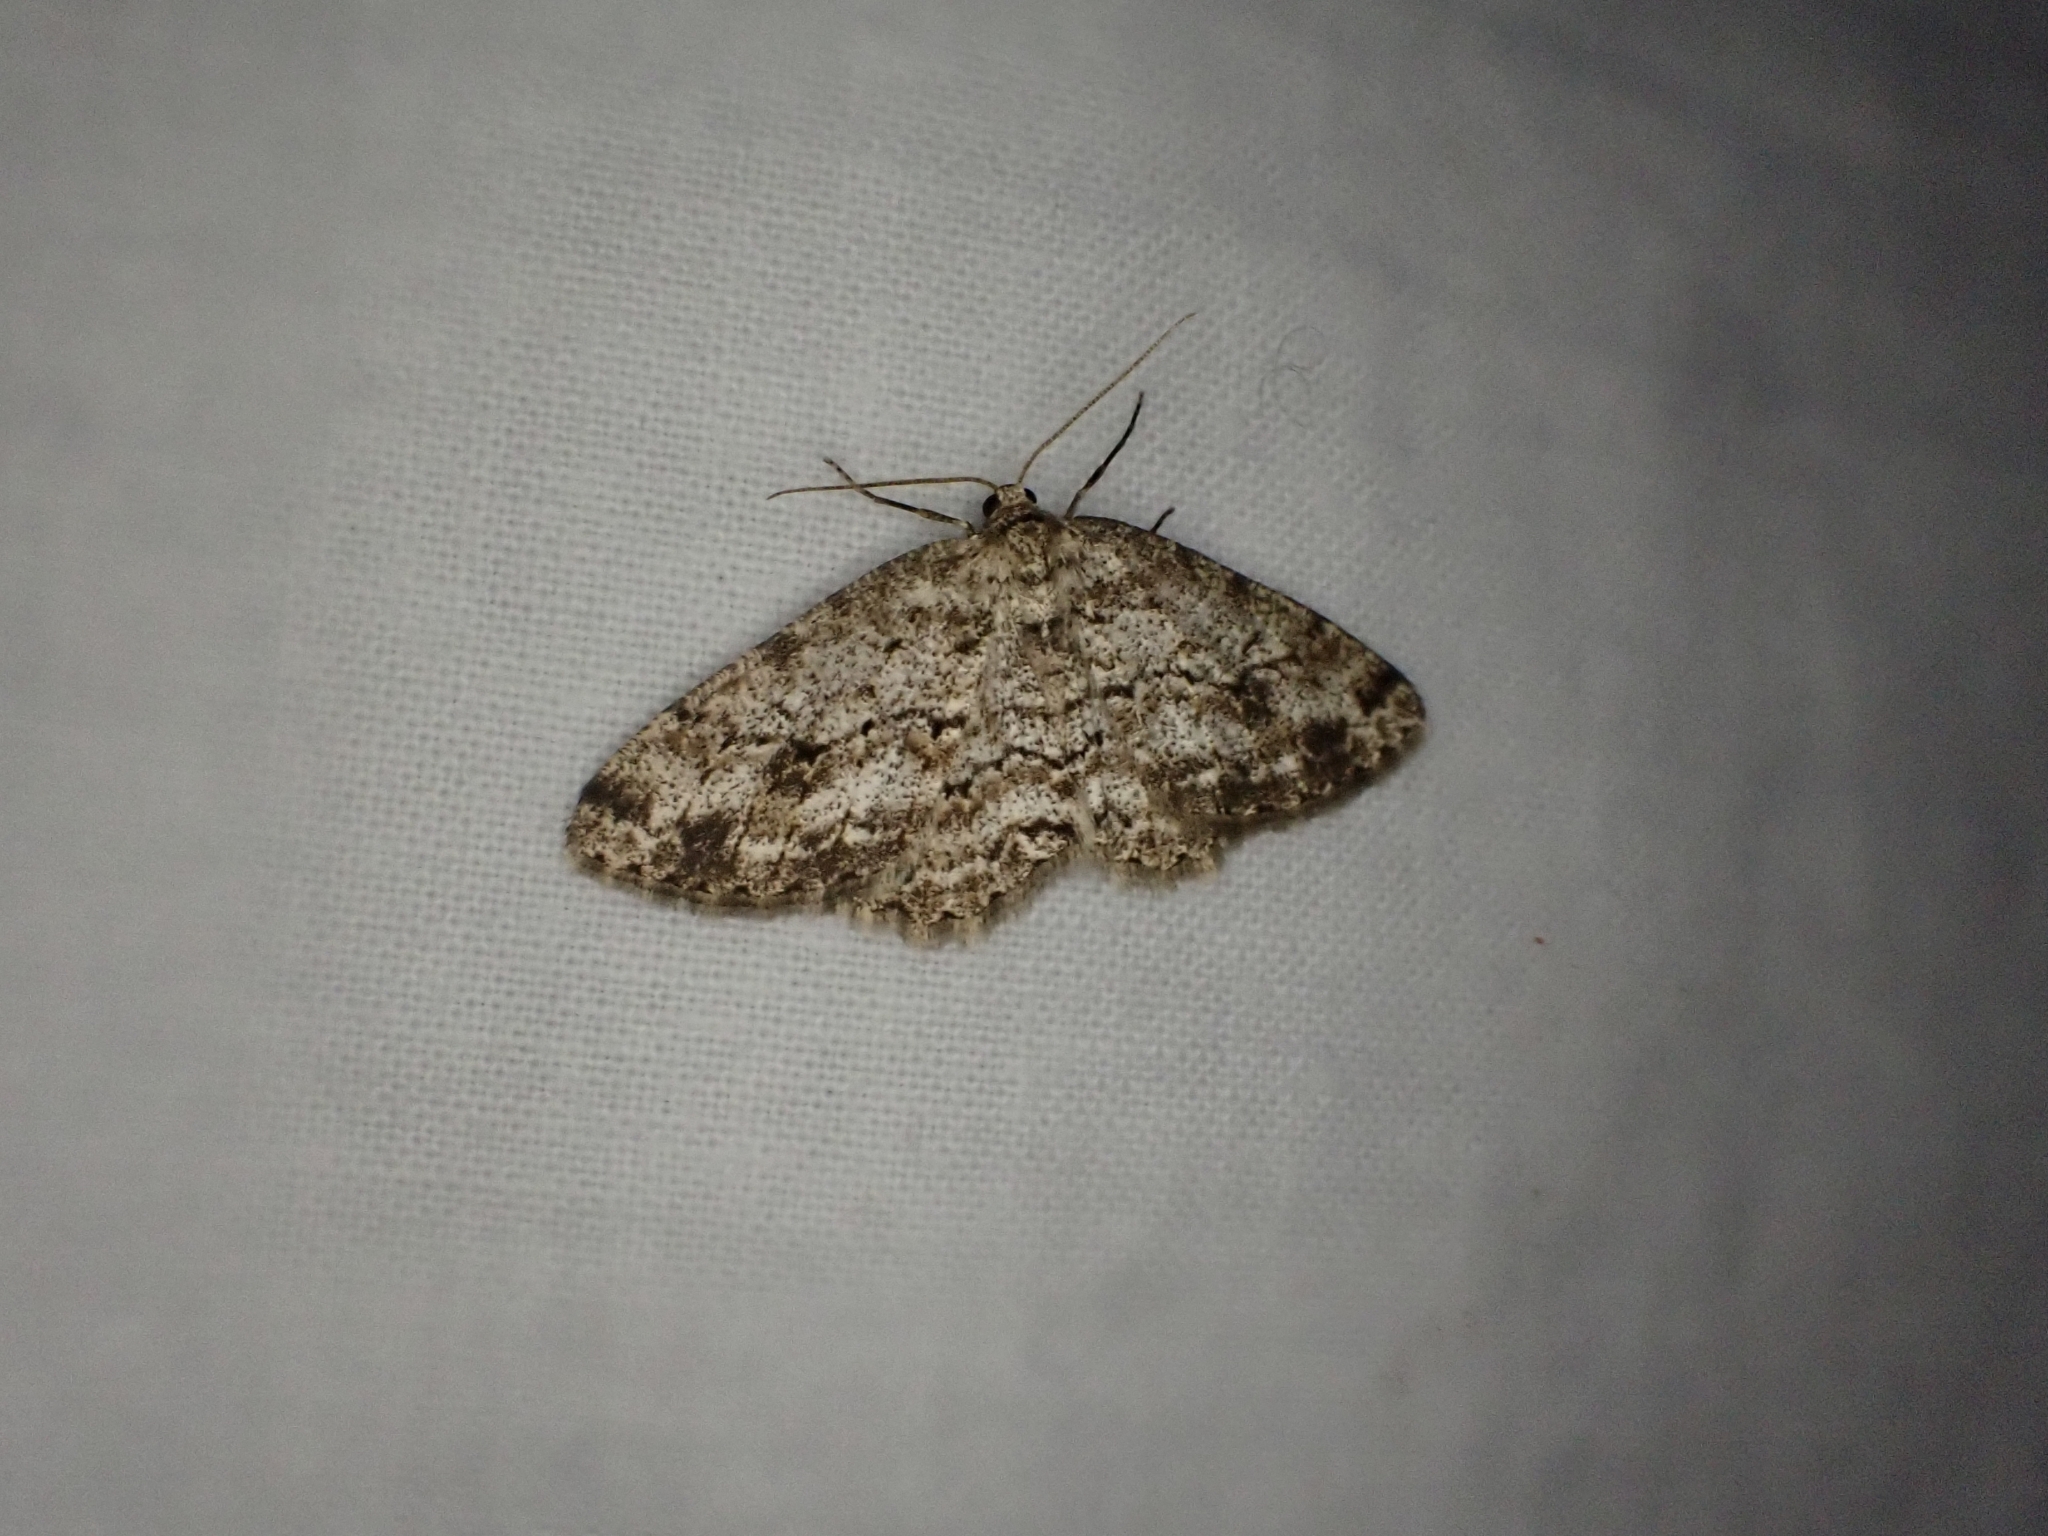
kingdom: Animalia
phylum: Arthropoda
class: Insecta
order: Lepidoptera
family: Geometridae
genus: Ectropis
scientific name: Ectropis crepuscularia
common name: Engrailed
